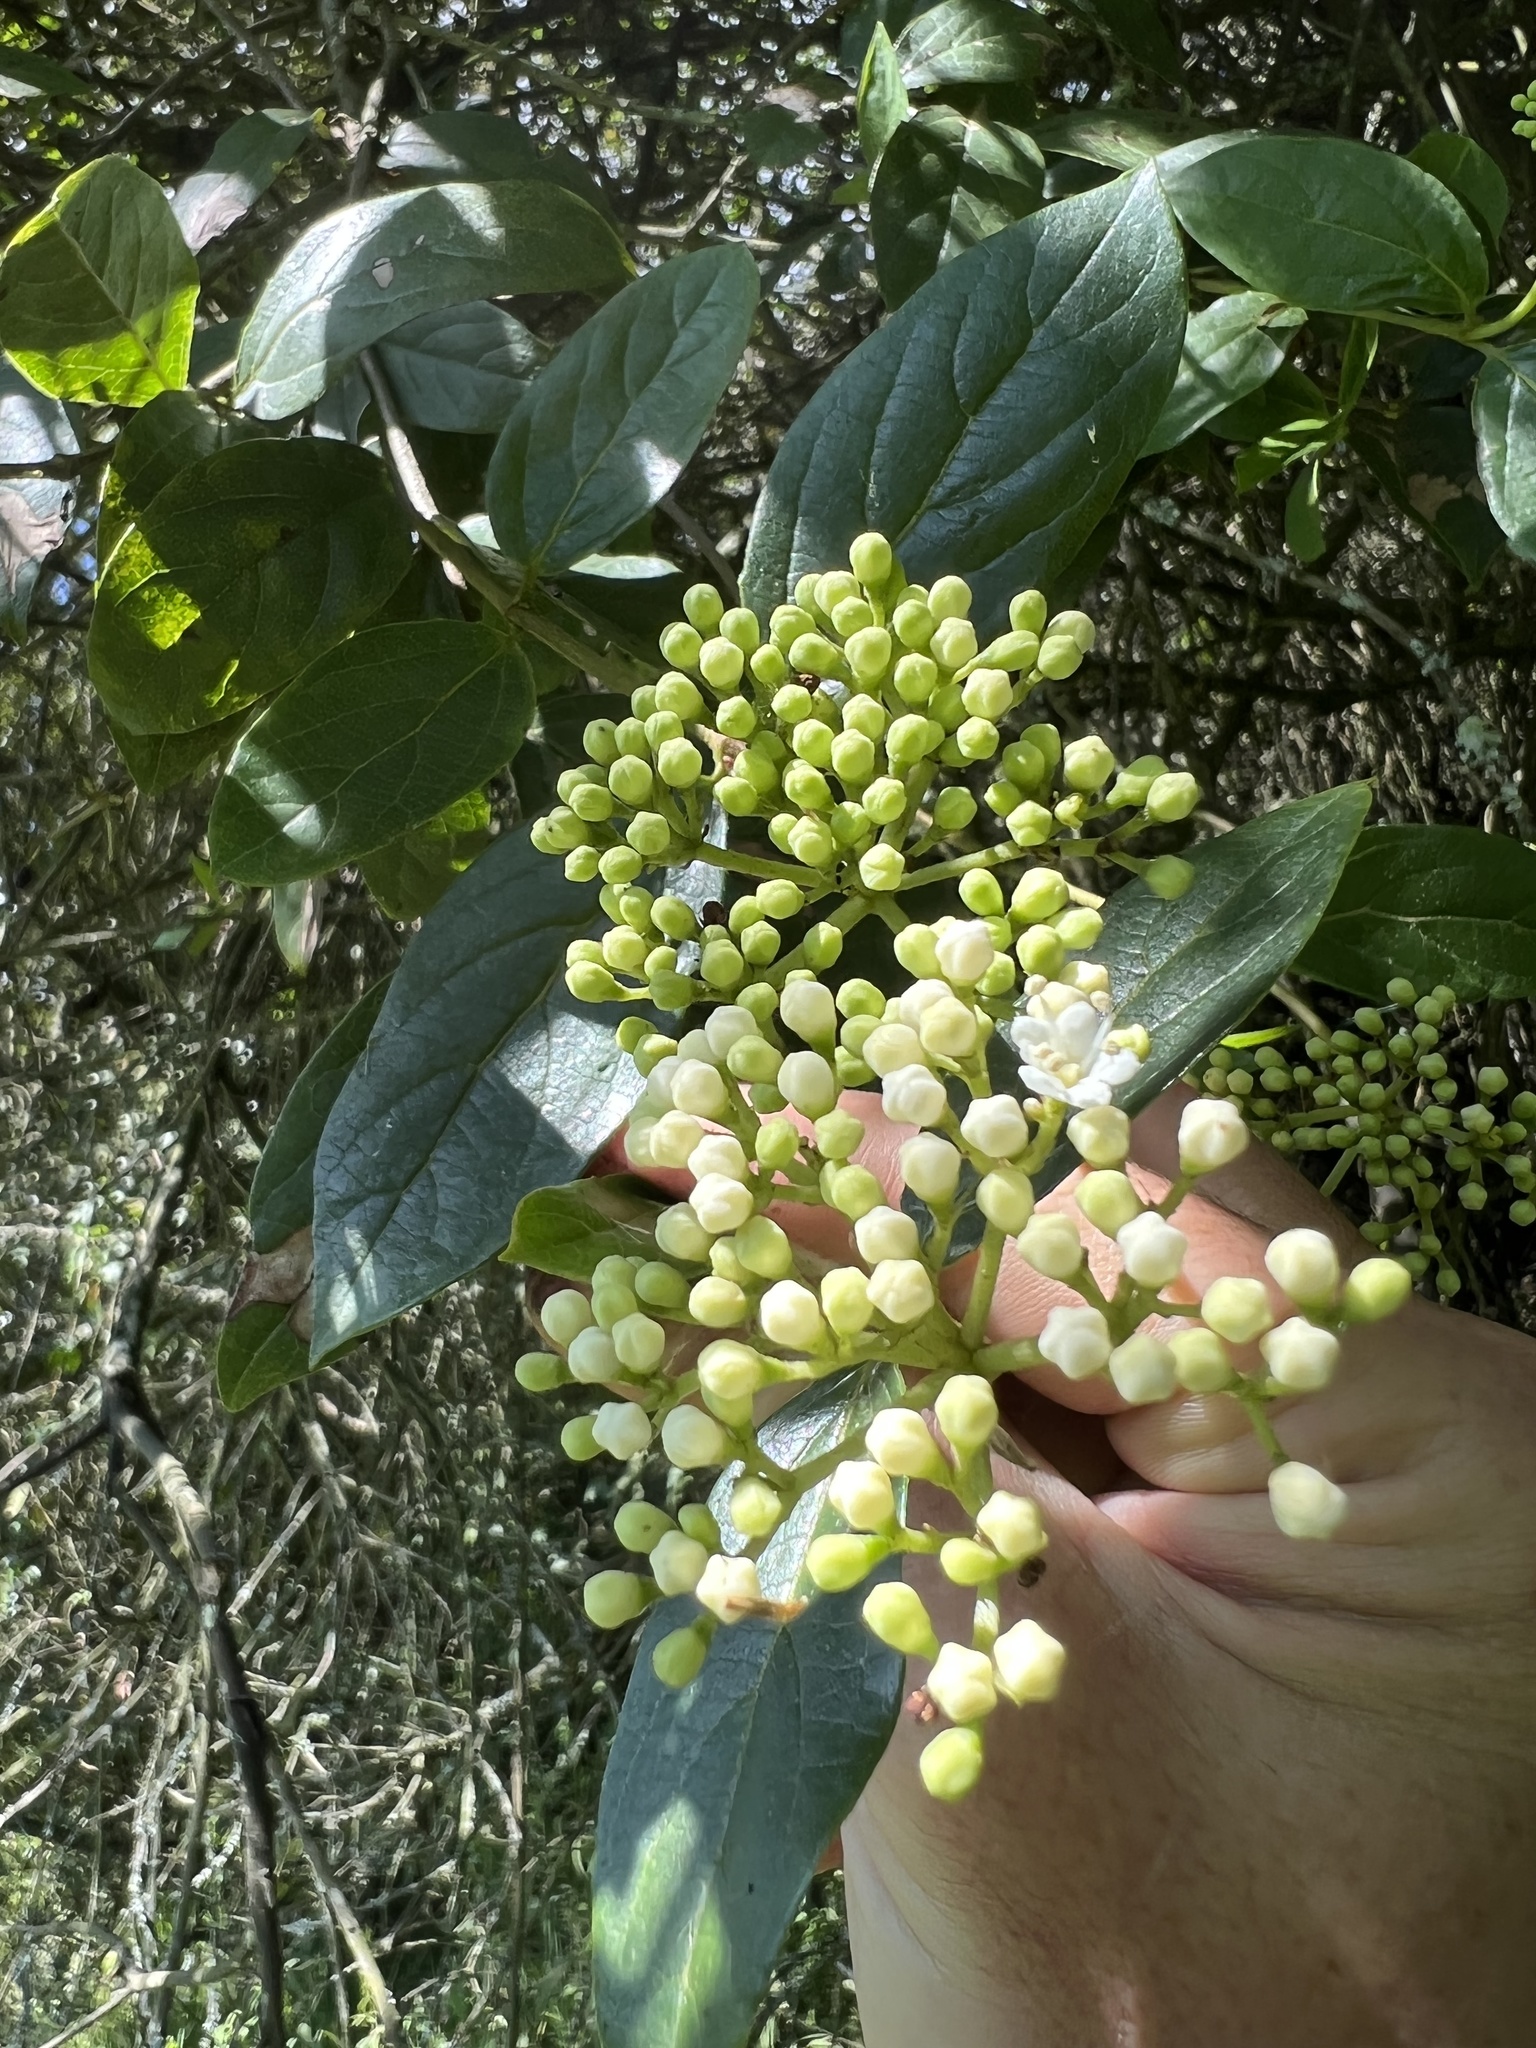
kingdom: Plantae
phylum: Tracheophyta
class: Magnoliopsida
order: Dipsacales
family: Viburnaceae
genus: Viburnum
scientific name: Viburnum tinoides
